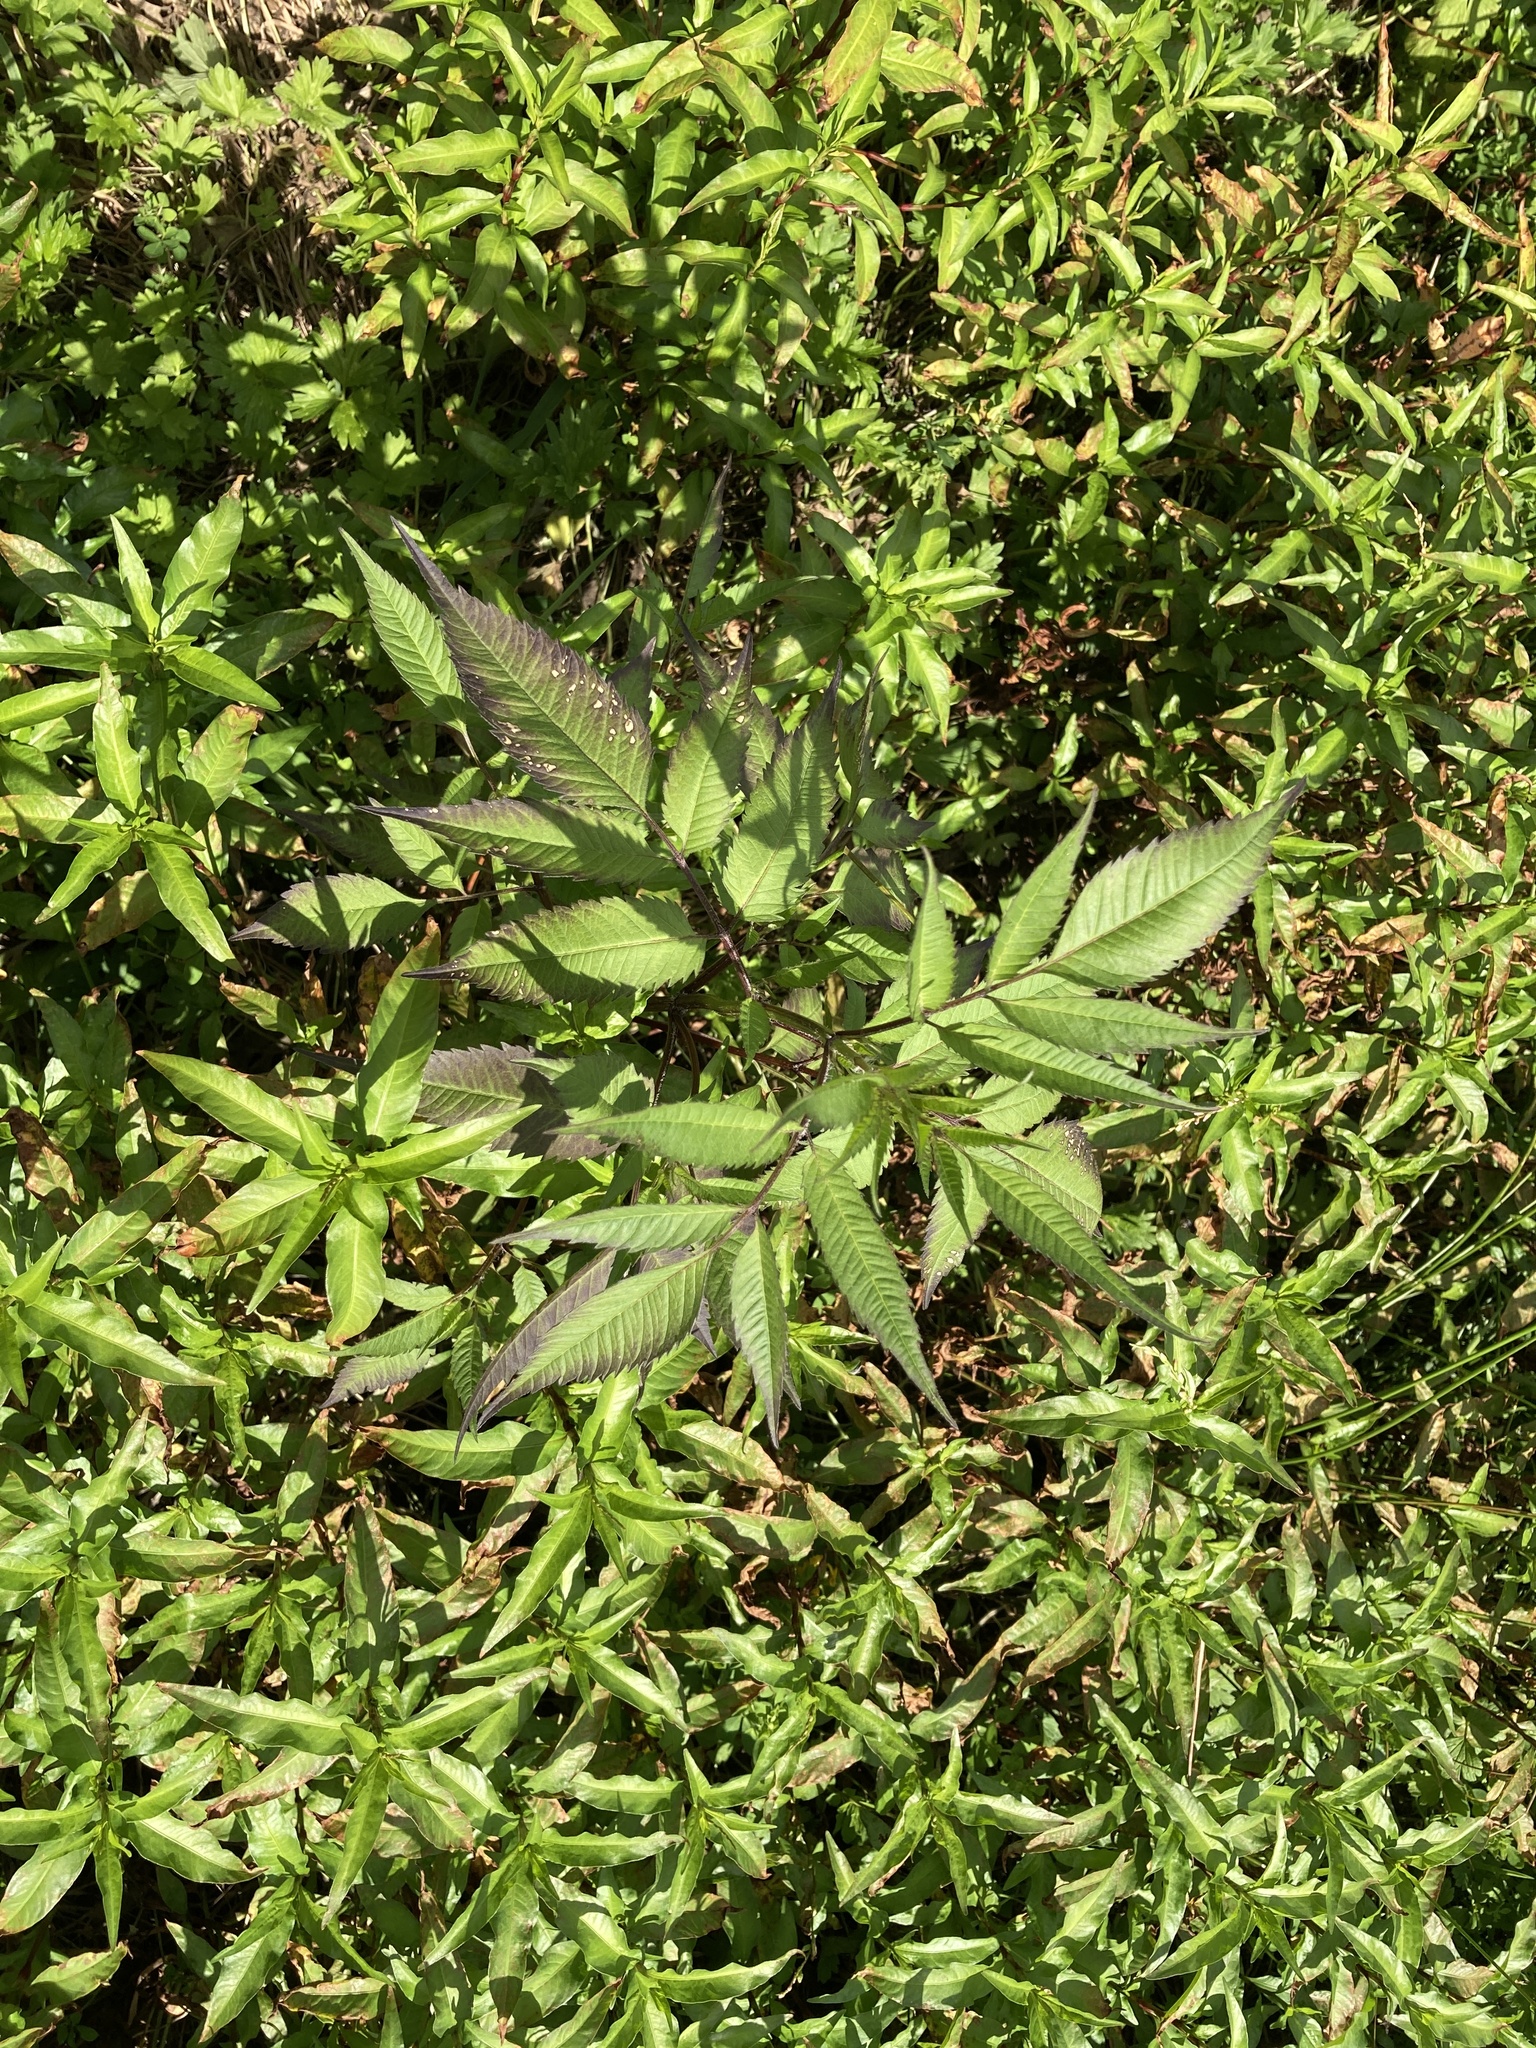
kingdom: Plantae
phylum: Tracheophyta
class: Magnoliopsida
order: Asterales
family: Asteraceae
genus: Bidens
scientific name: Bidens frondosa
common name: Beggarticks
